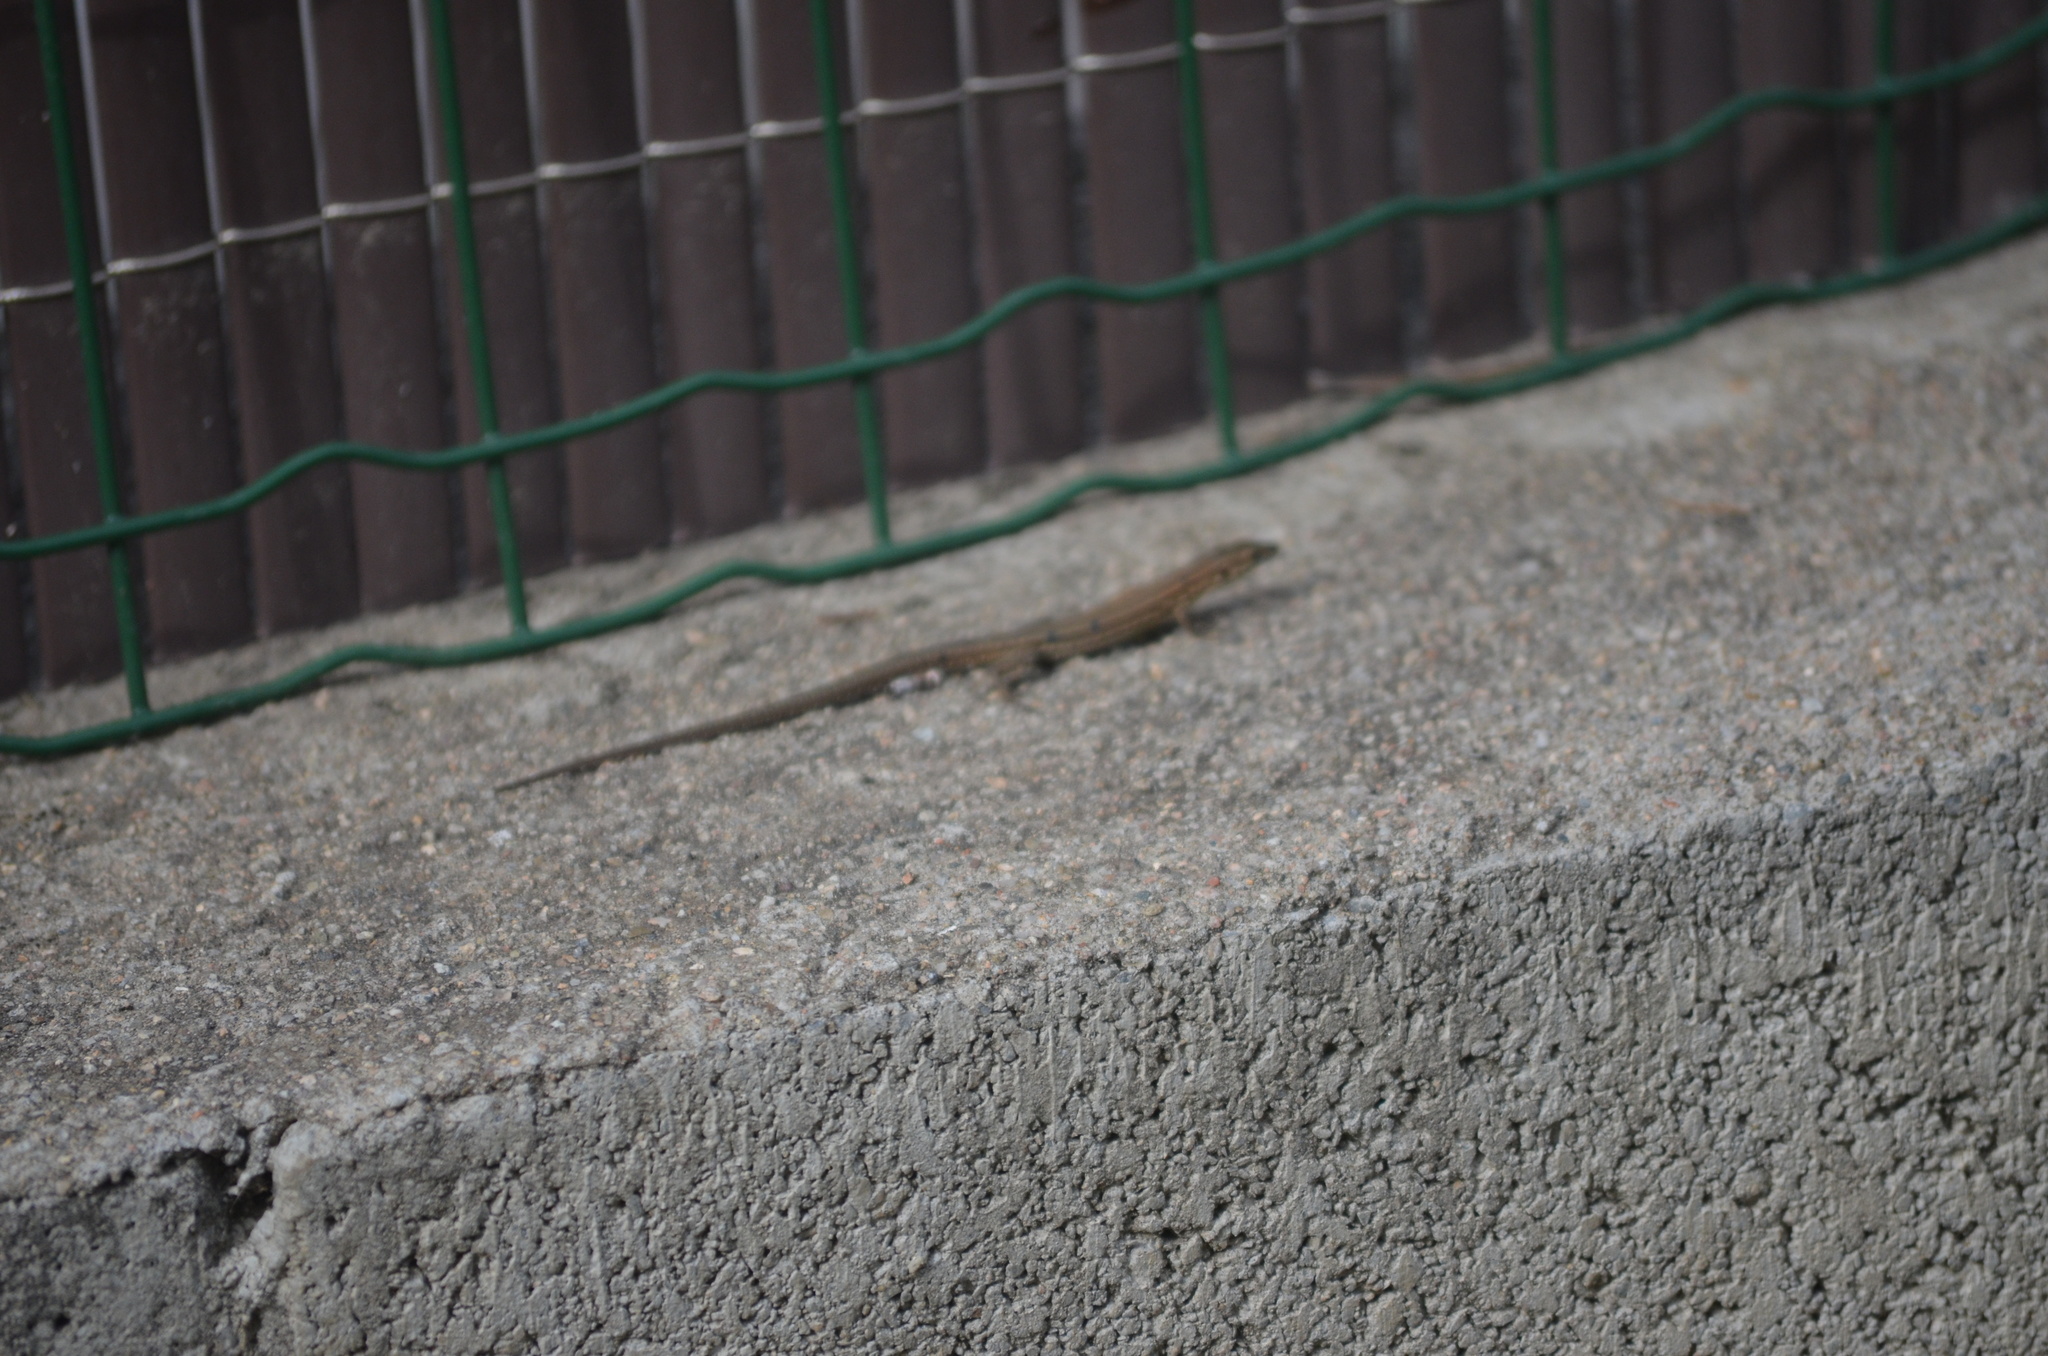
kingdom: Animalia
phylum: Chordata
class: Squamata
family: Lacertidae
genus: Podarcis
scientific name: Podarcis liolepis
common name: Catalonian wall lizard
